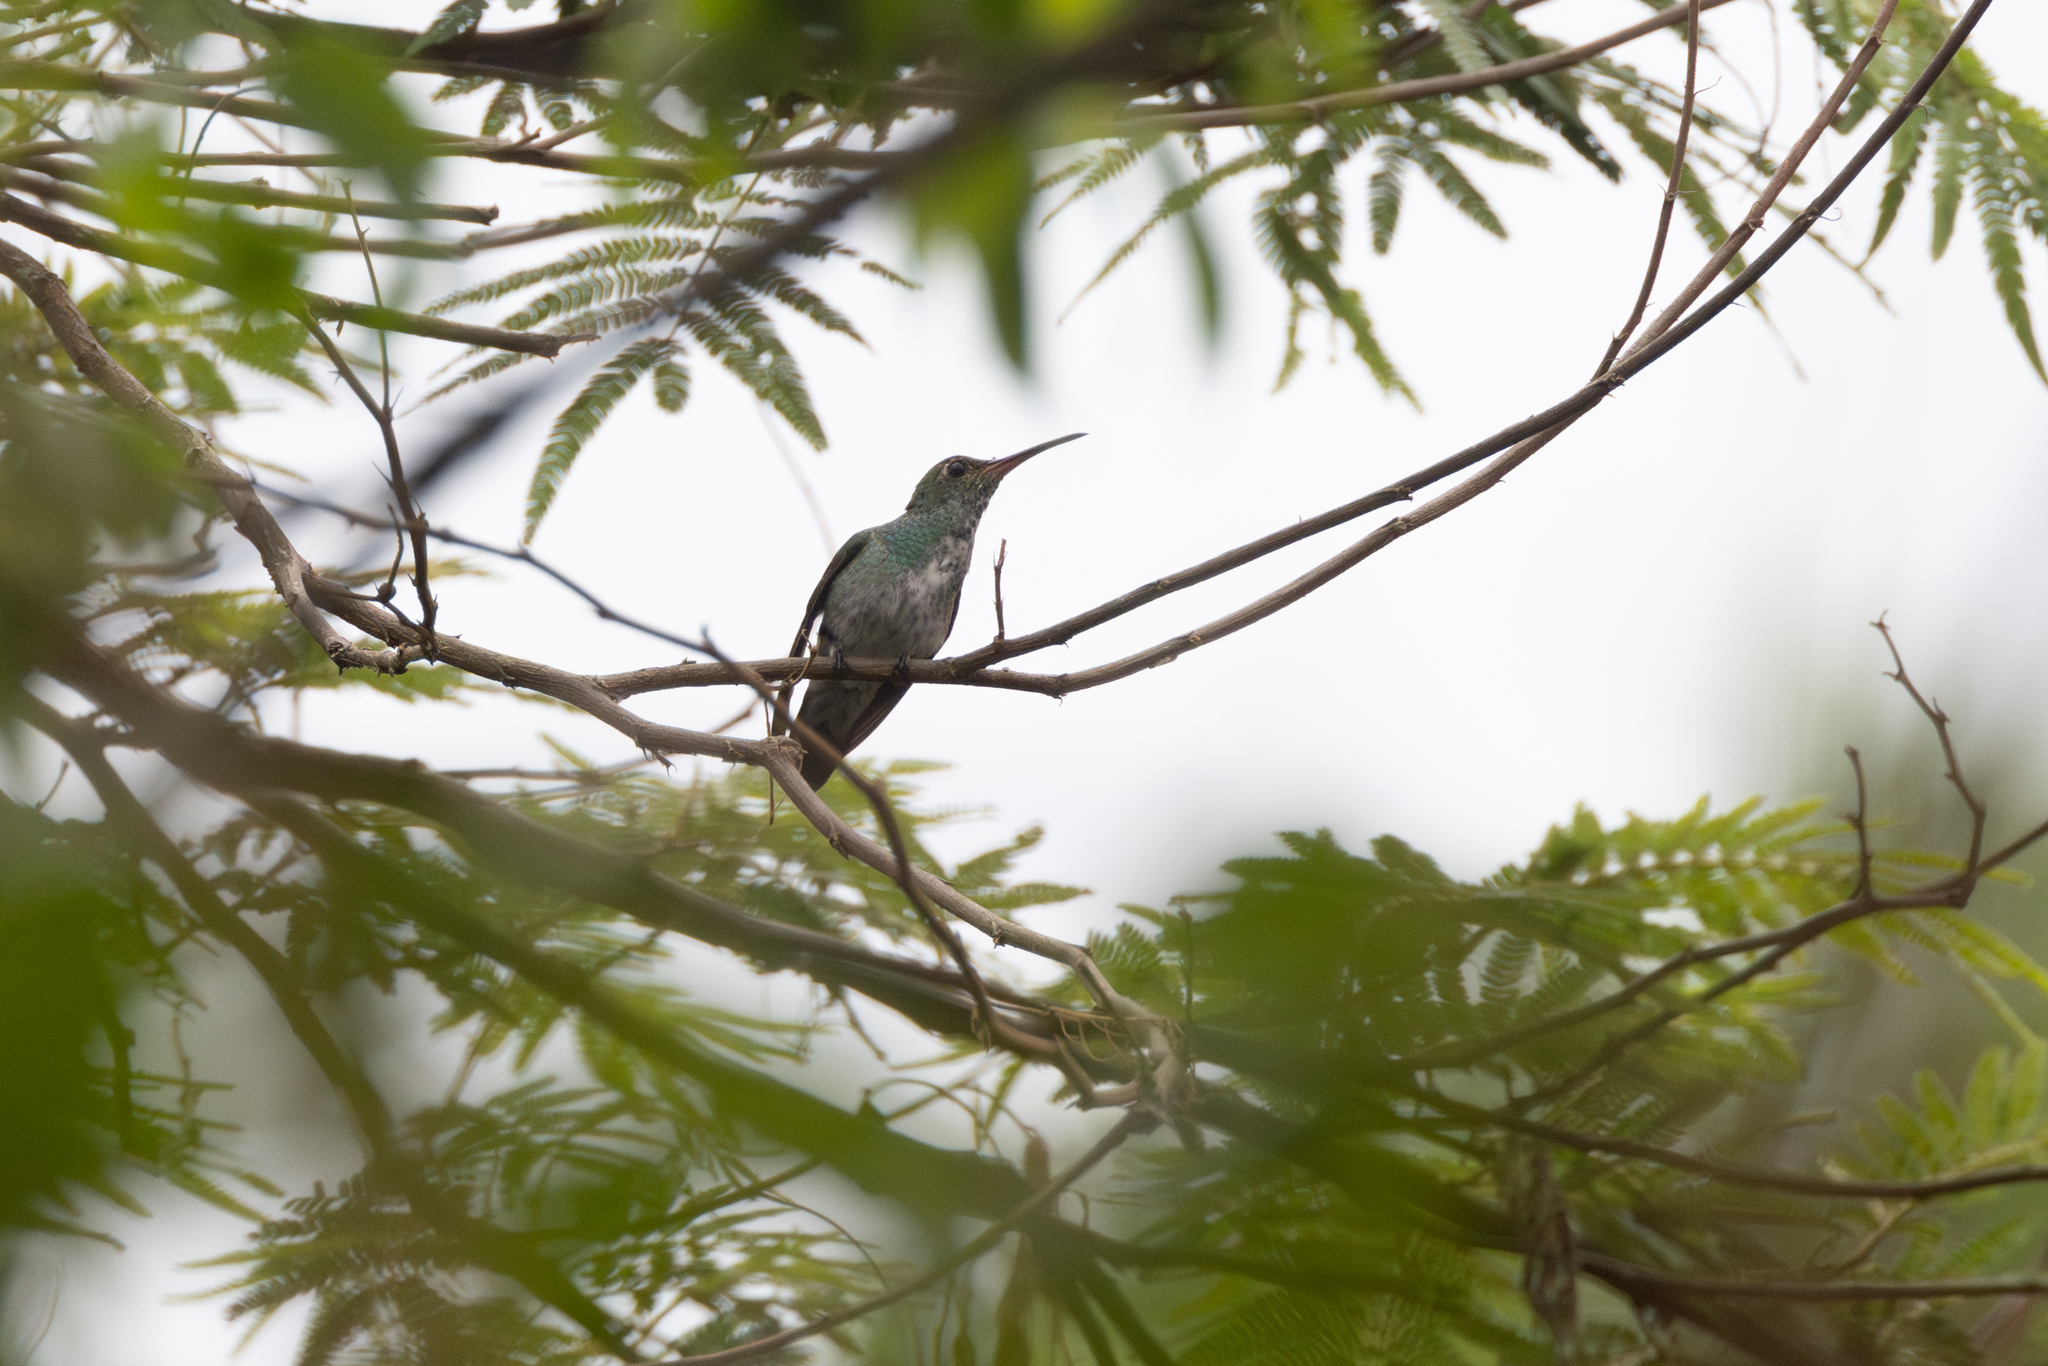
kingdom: Animalia
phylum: Chordata
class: Aves
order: Apodiformes
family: Trochilidae
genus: Chionomesa
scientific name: Chionomesa fimbriata
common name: Glittering-throated emerald
